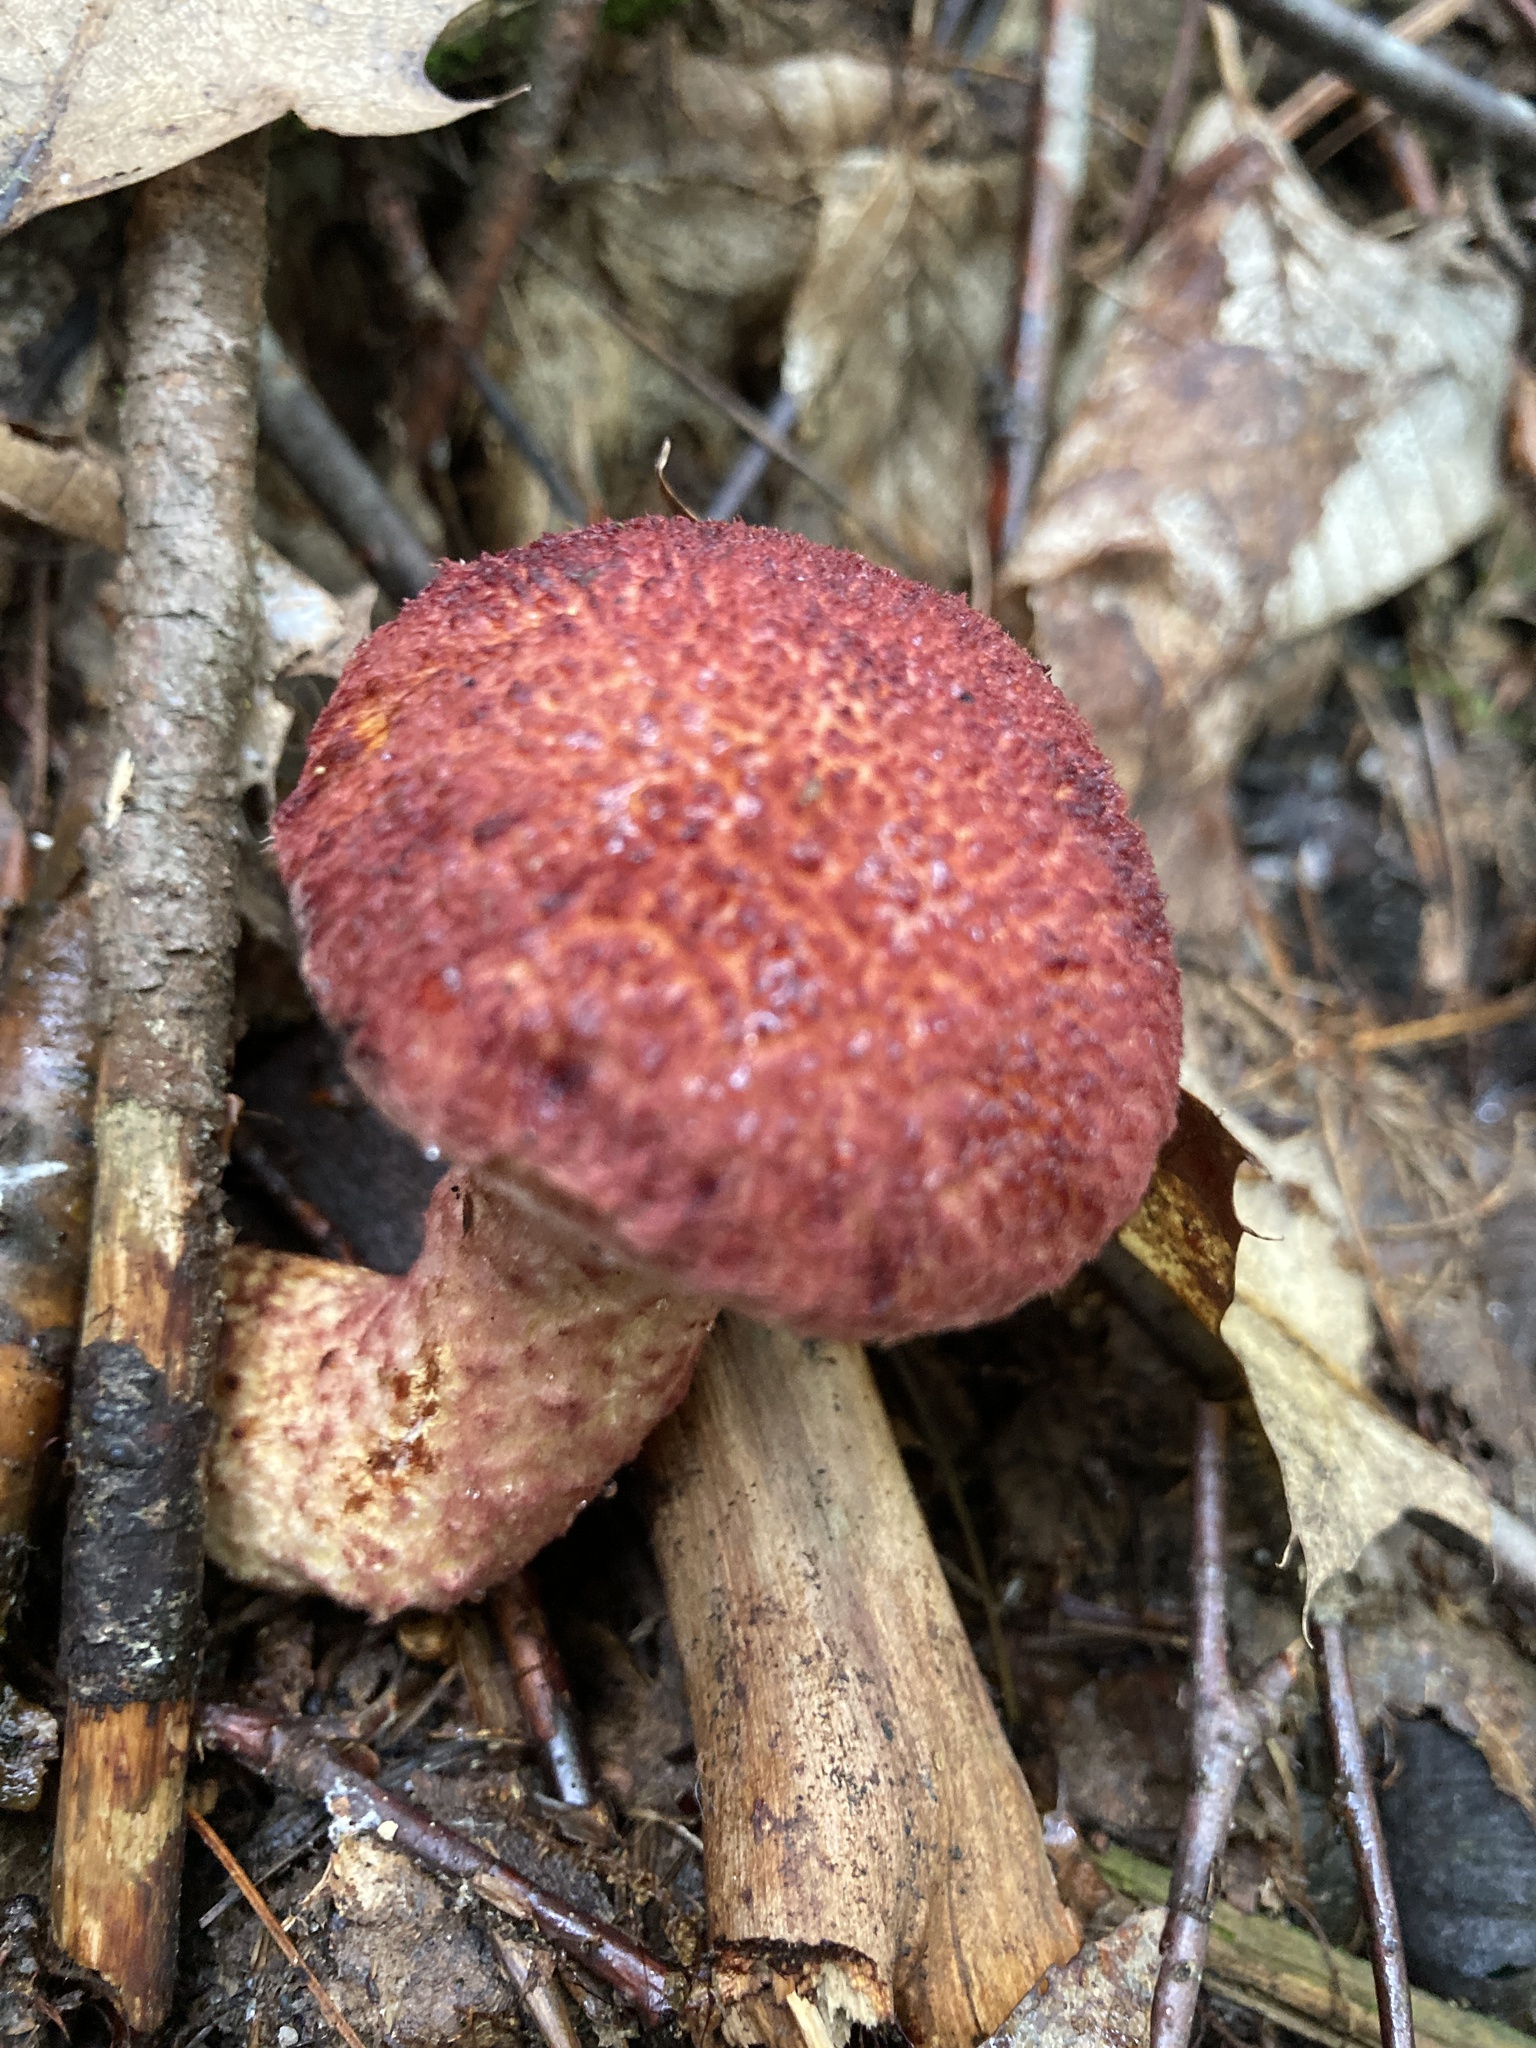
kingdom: Fungi
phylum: Basidiomycota
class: Agaricomycetes
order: Boletales
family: Suillaceae
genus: Suillus
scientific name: Suillus spraguei
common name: Painted suillus
